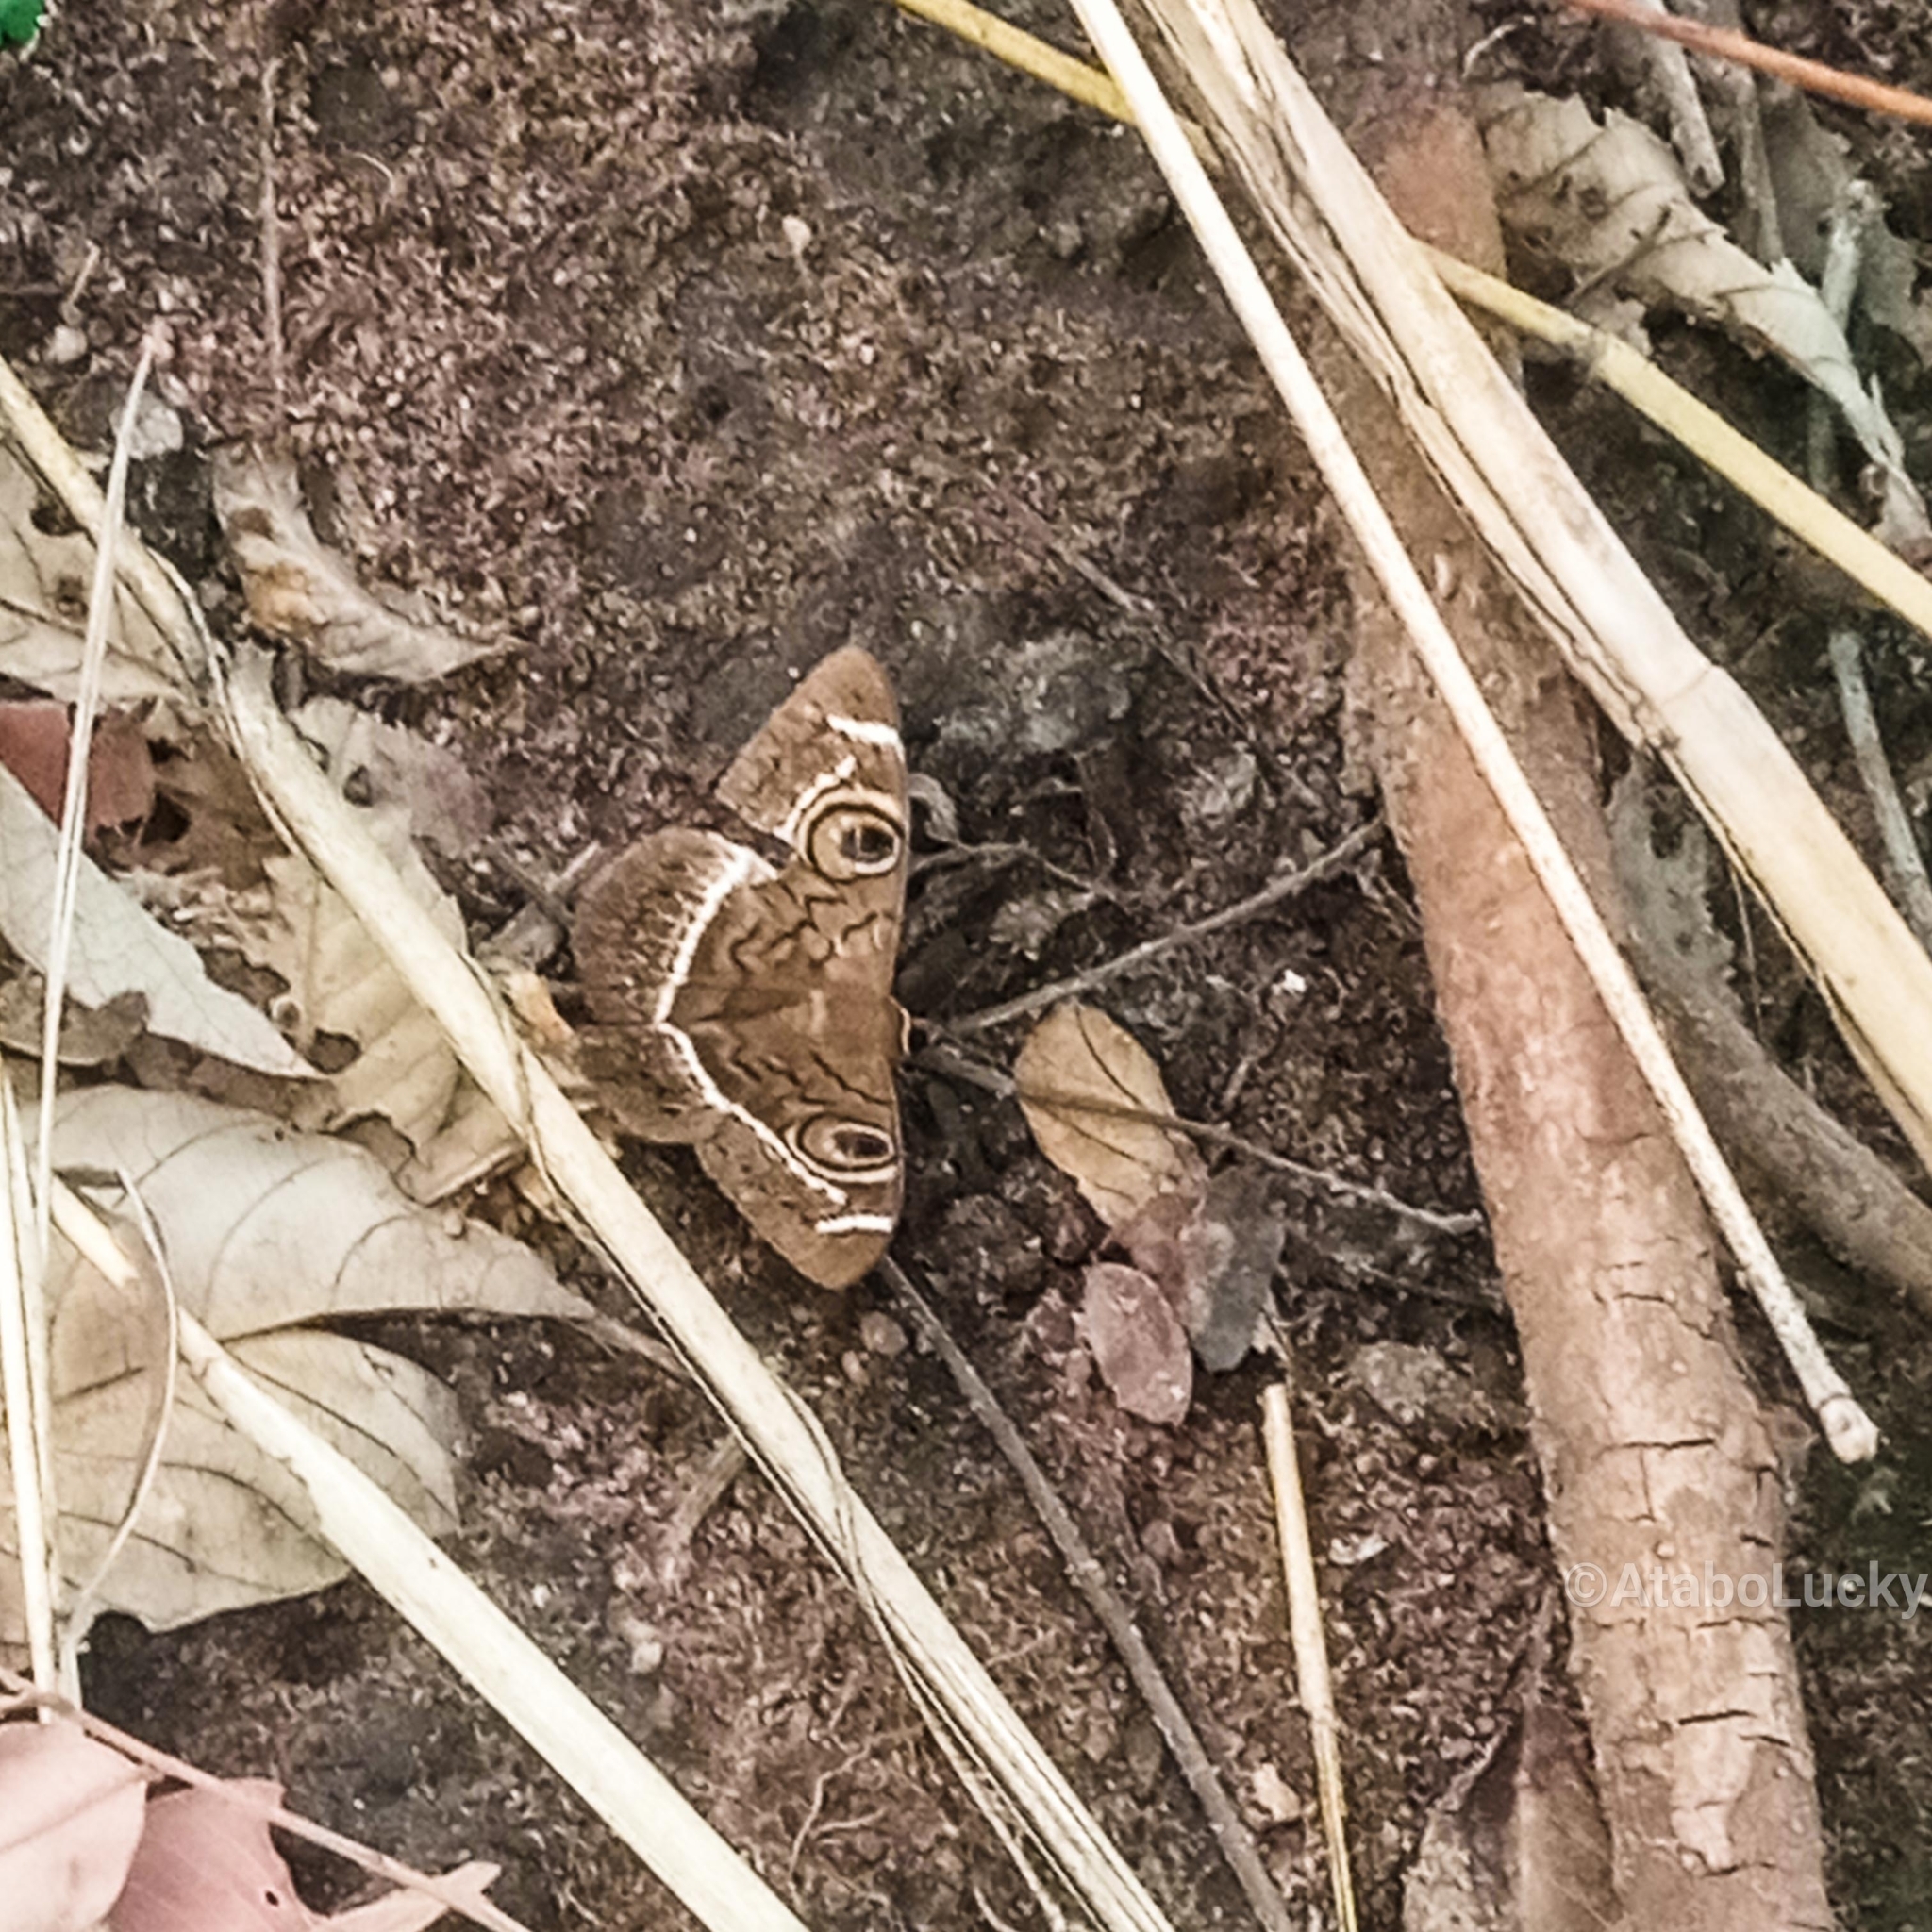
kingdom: Animalia
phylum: Arthropoda
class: Insecta
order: Lepidoptera
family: Erebidae
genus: Cyligramma
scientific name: Cyligramma latona
